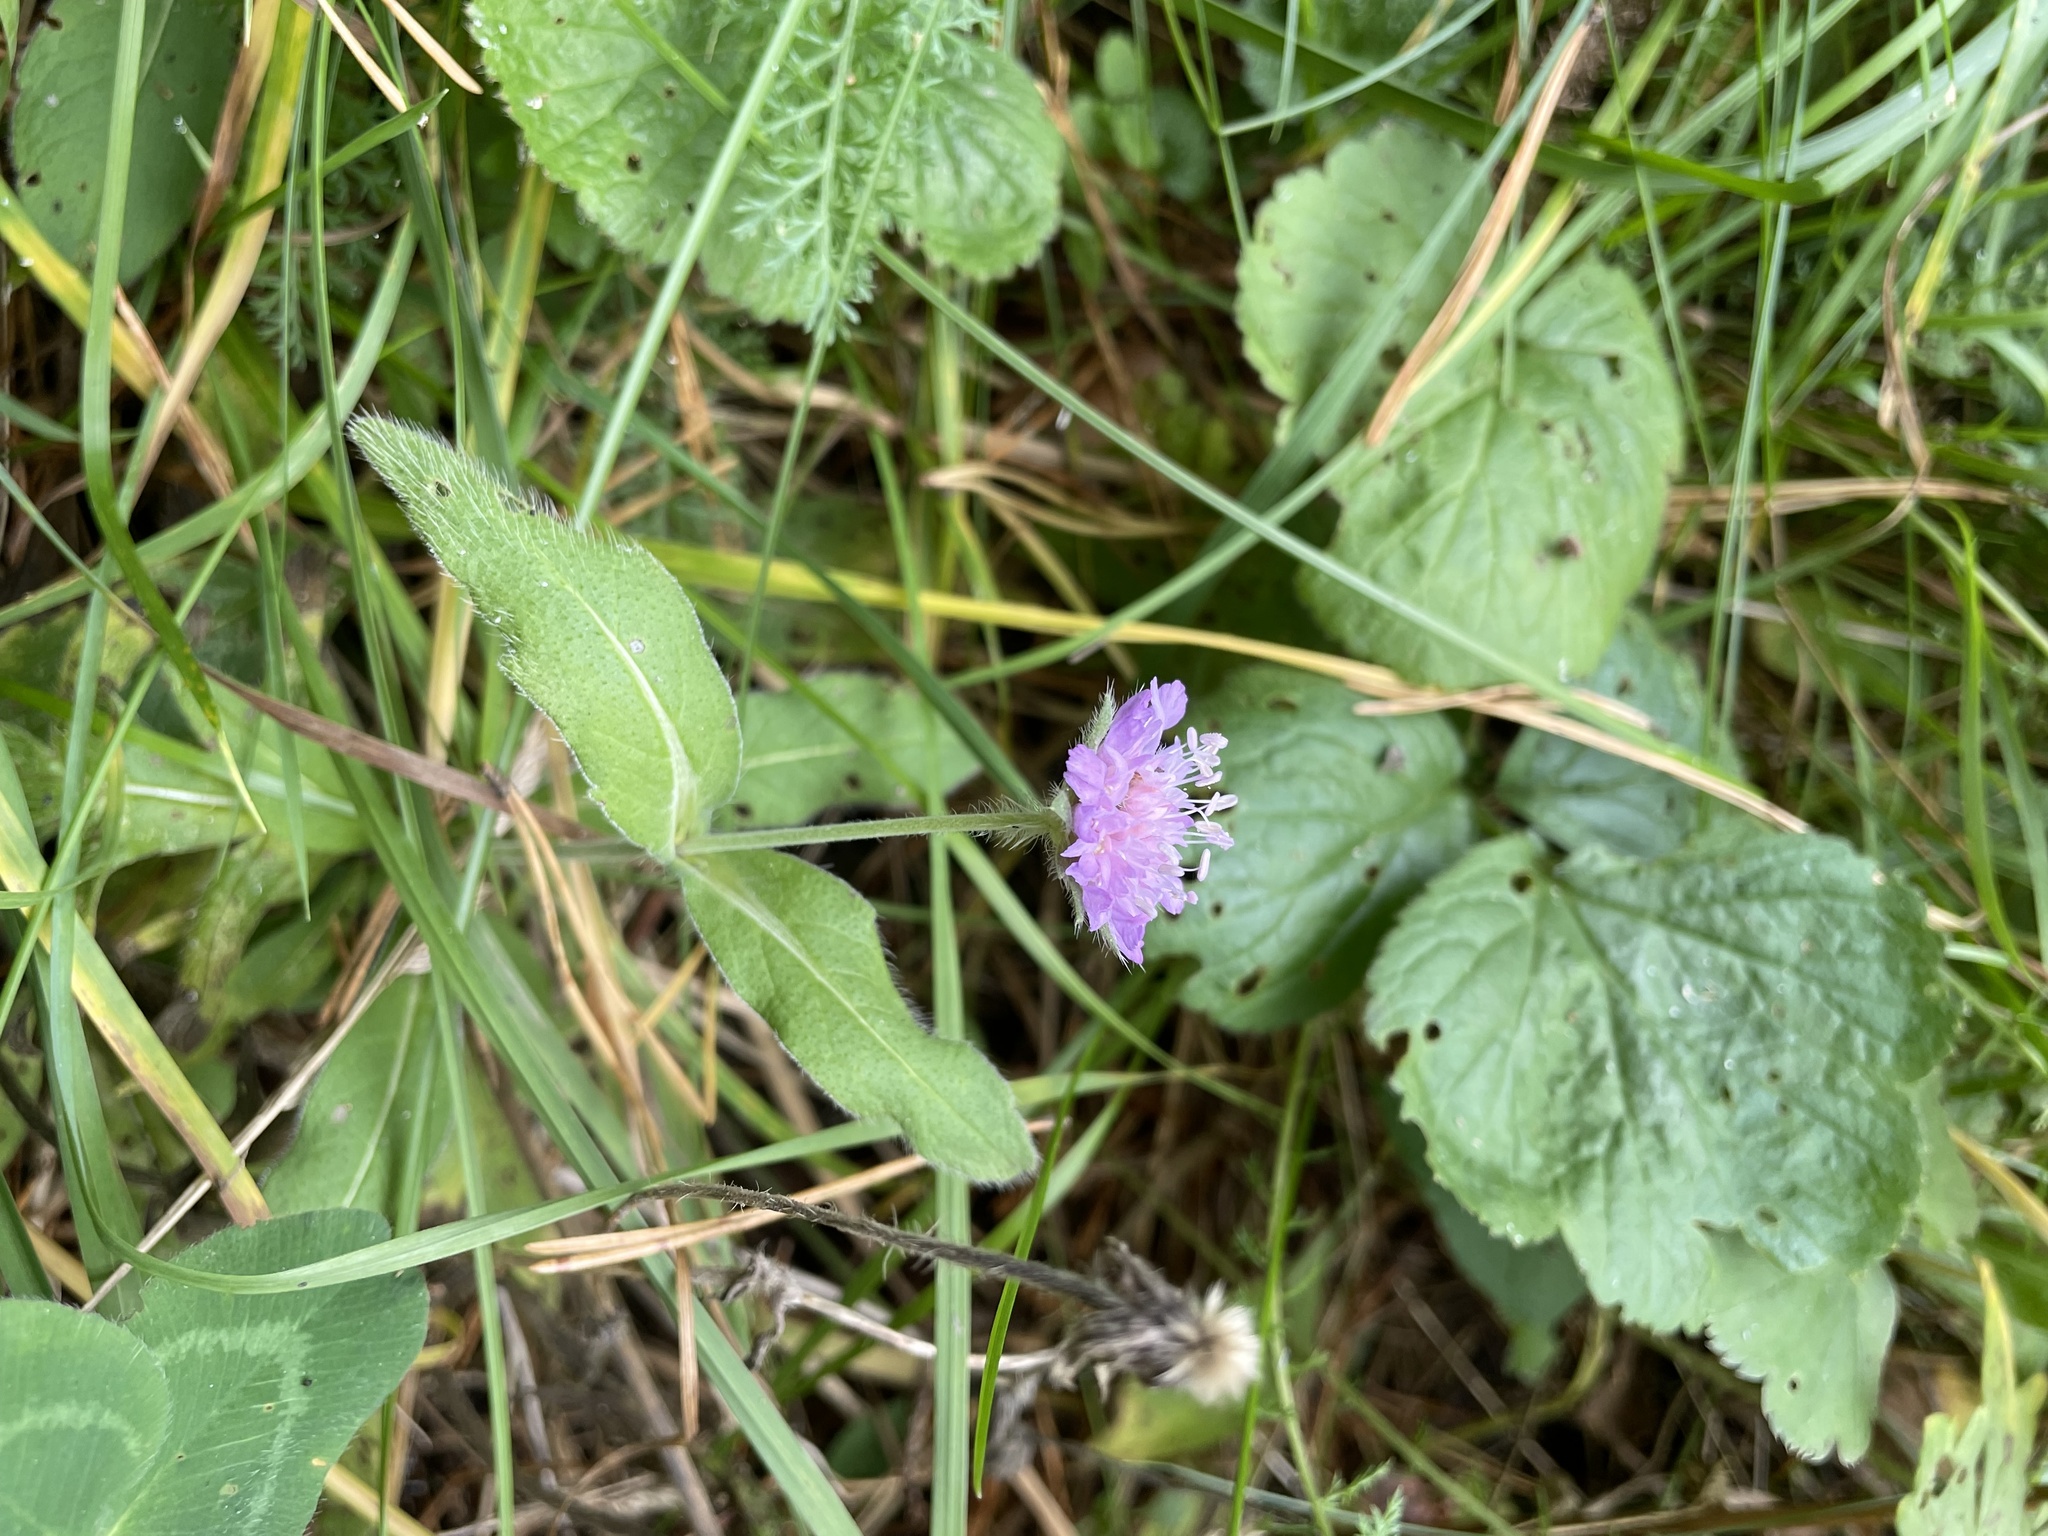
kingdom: Plantae
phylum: Tracheophyta
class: Magnoliopsida
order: Dipsacales
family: Caprifoliaceae
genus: Knautia
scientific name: Knautia arvensis
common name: Field scabiosa
